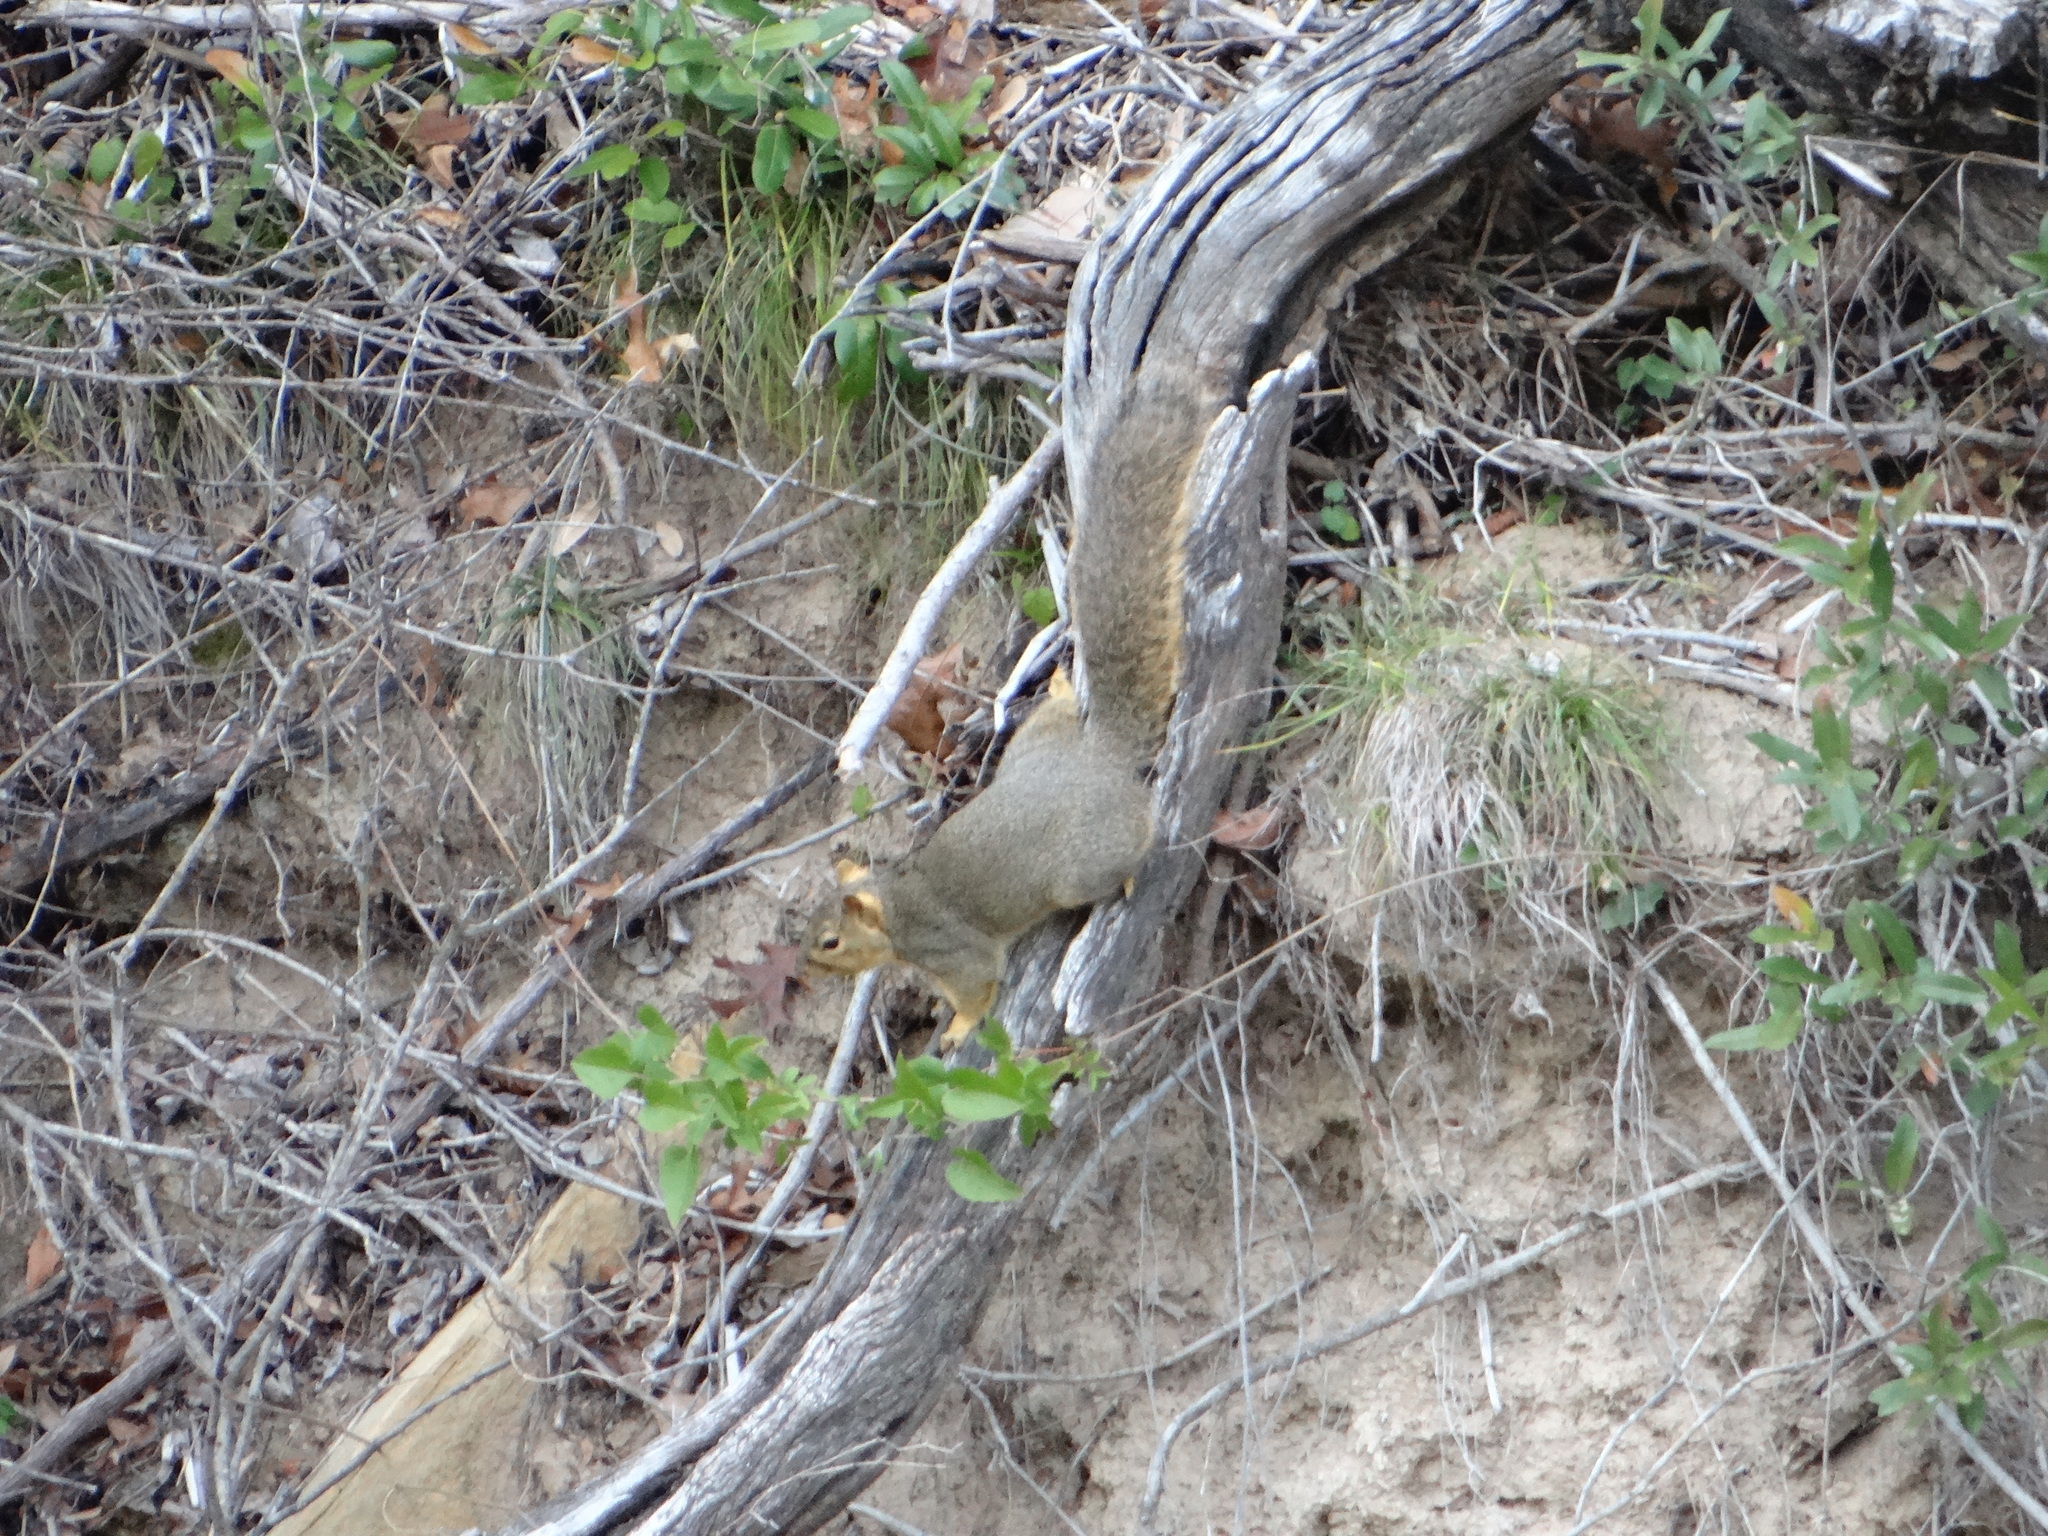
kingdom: Animalia
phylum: Chordata
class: Mammalia
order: Rodentia
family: Sciuridae
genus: Sciurus
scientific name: Sciurus niger
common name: Fox squirrel
